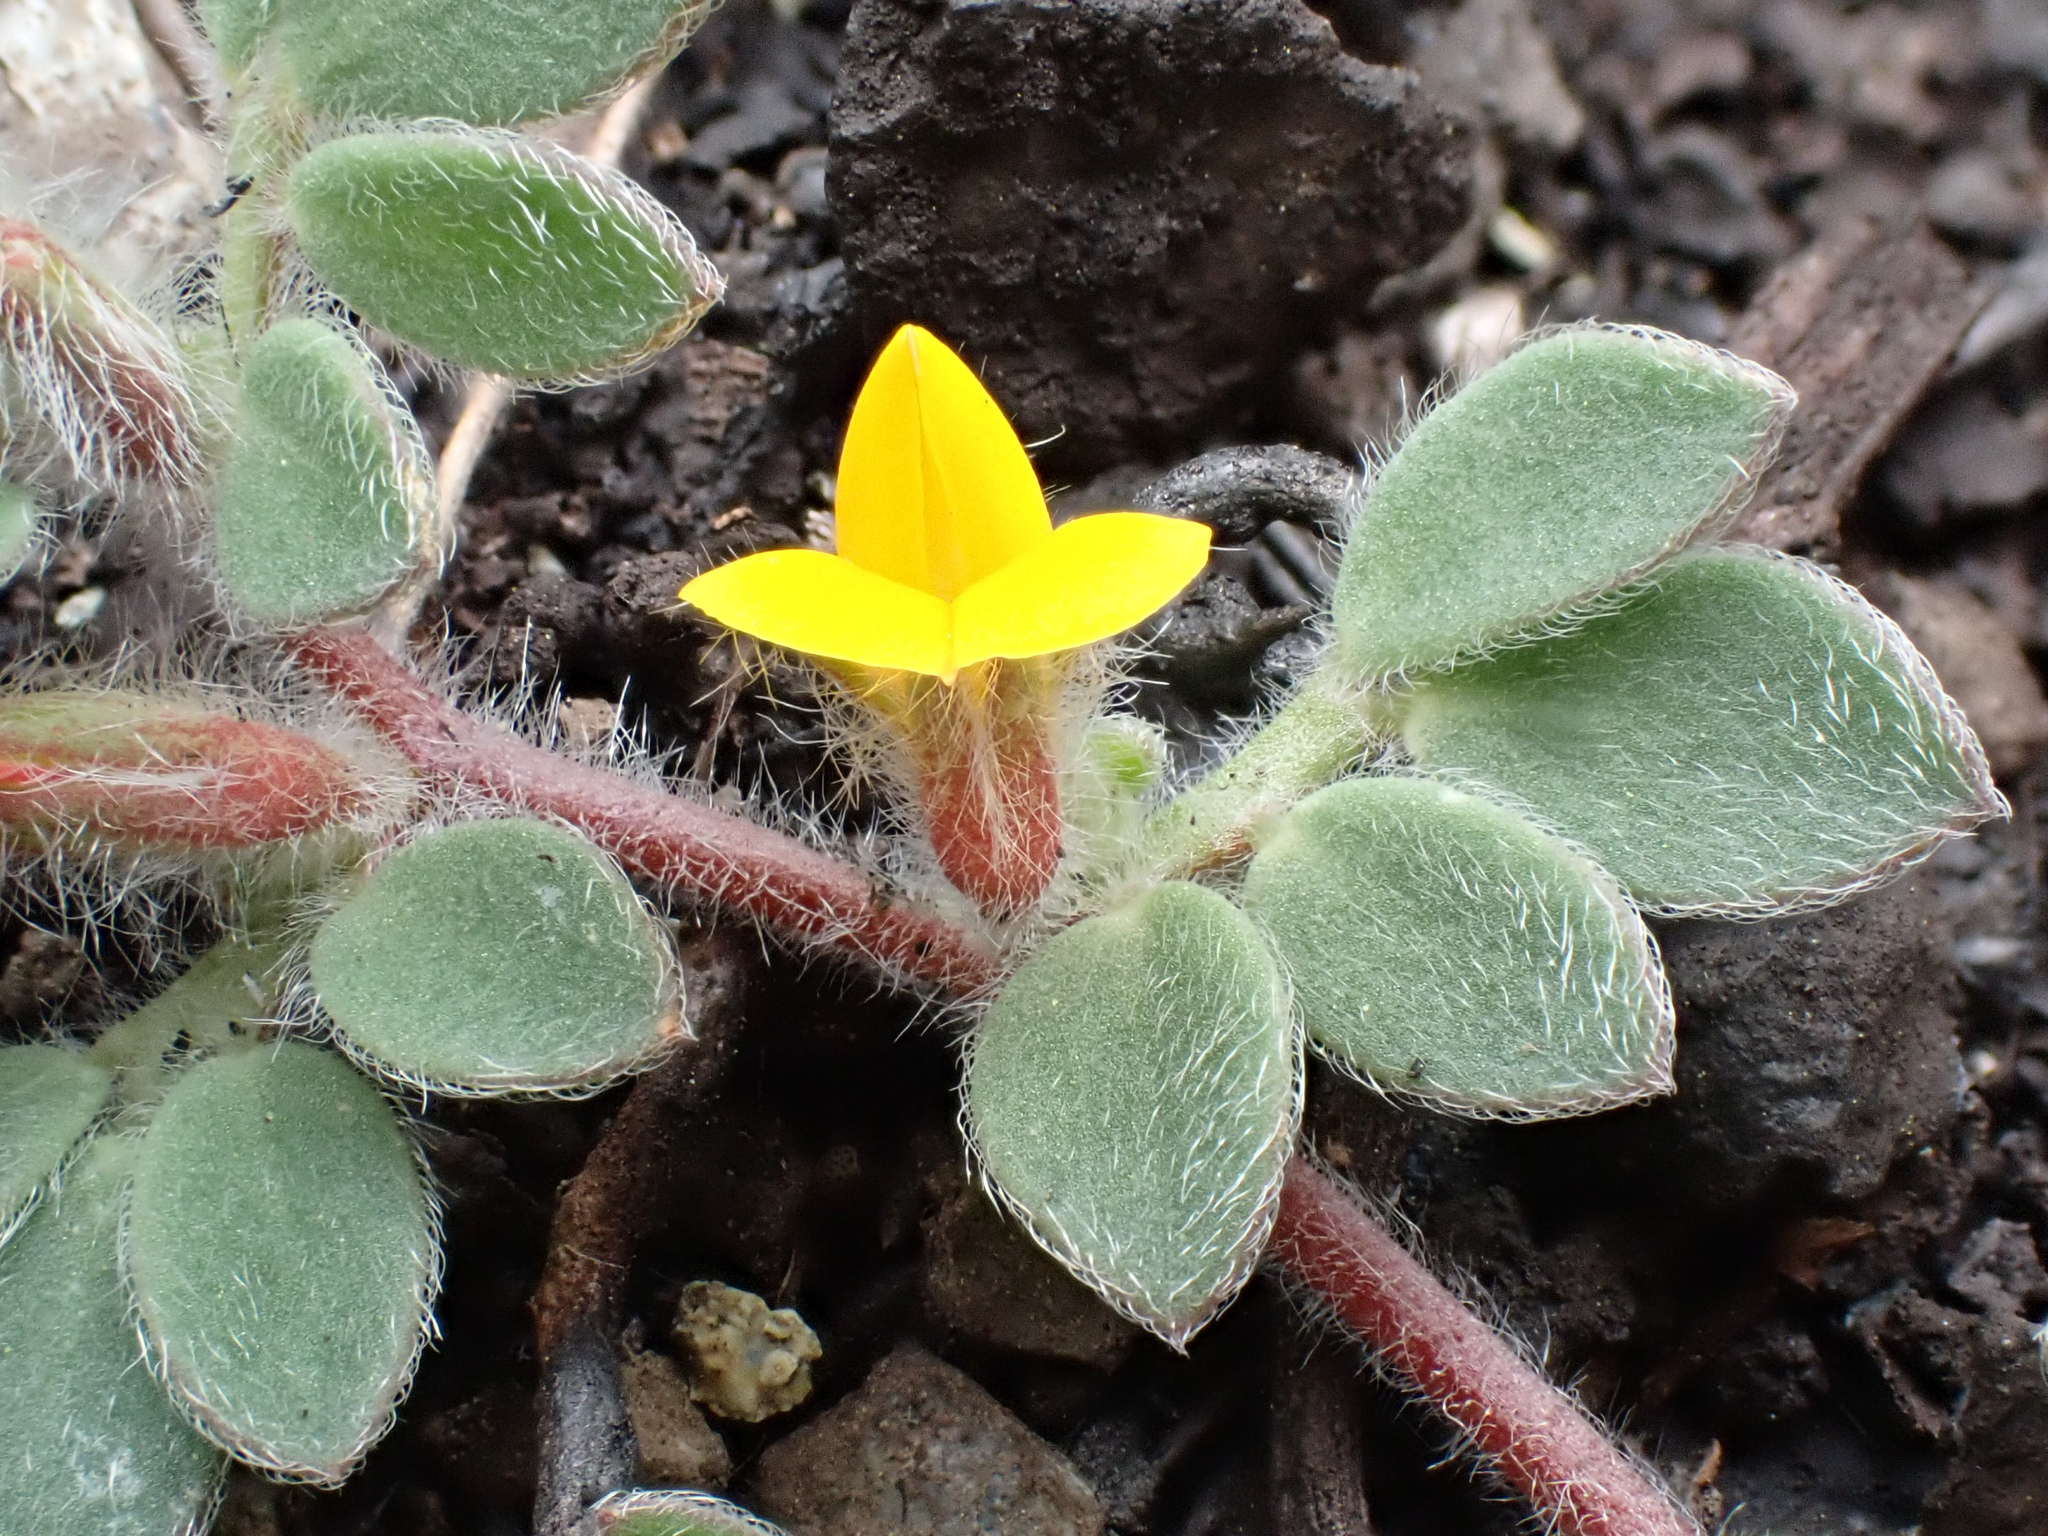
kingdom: Plantae
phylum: Tracheophyta
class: Magnoliopsida
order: Fabales
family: Fabaceae
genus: Acmispon
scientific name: Acmispon brachycarpus
